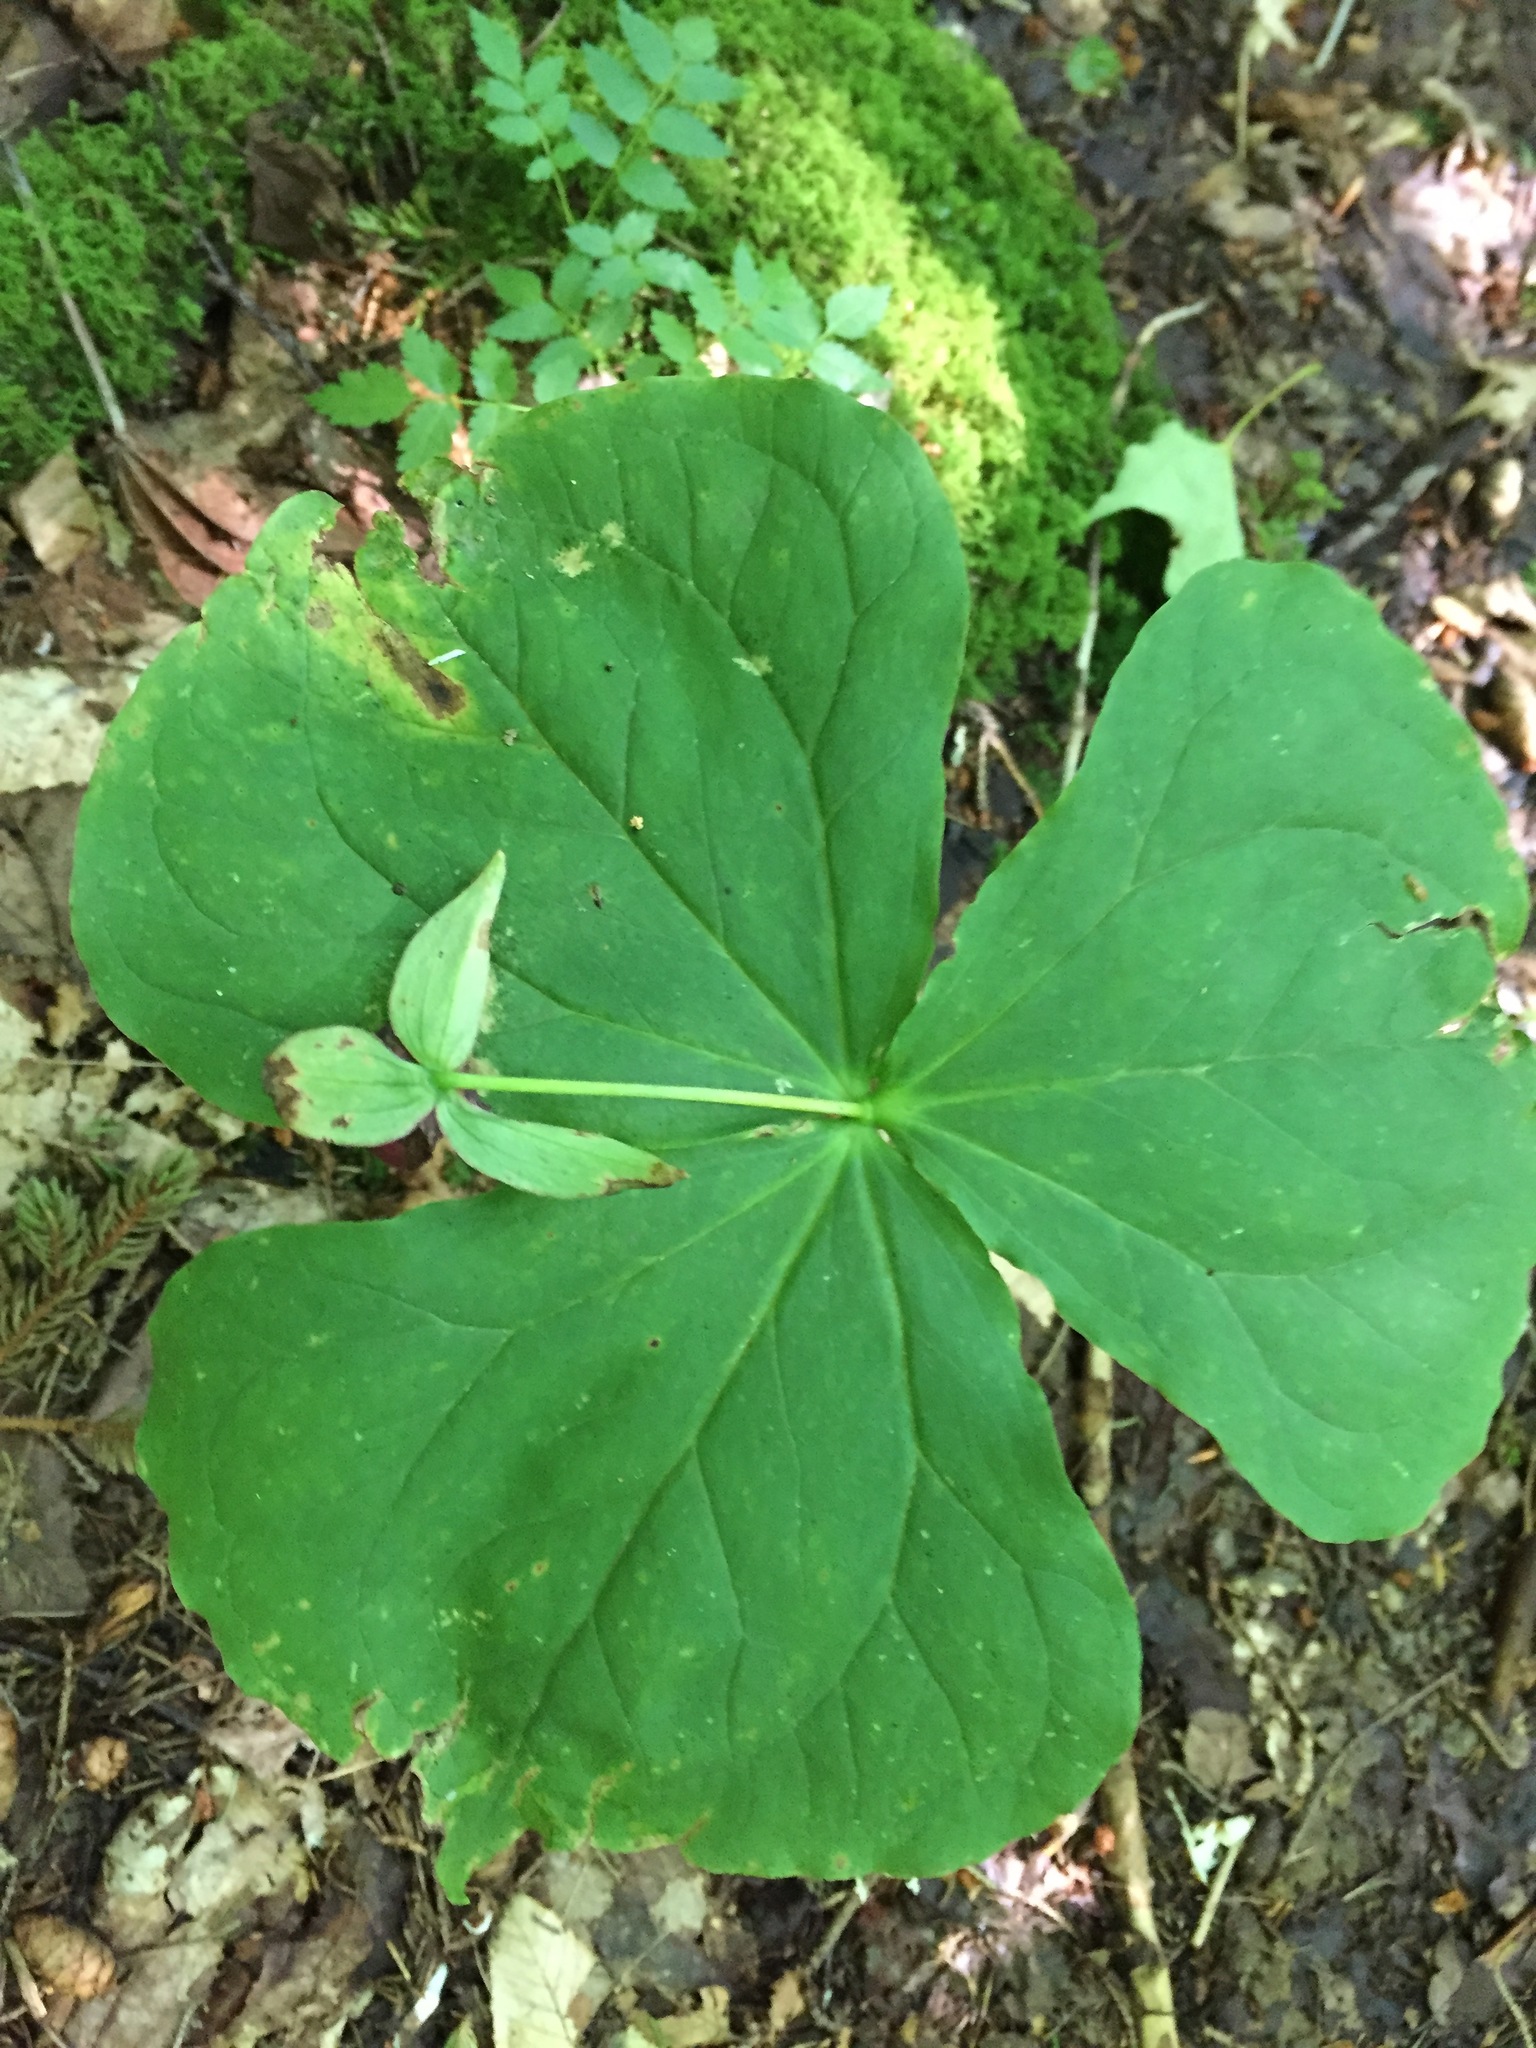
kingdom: Plantae
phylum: Tracheophyta
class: Liliopsida
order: Liliales
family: Melanthiaceae
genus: Trillium
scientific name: Trillium erectum
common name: Purple trillium
